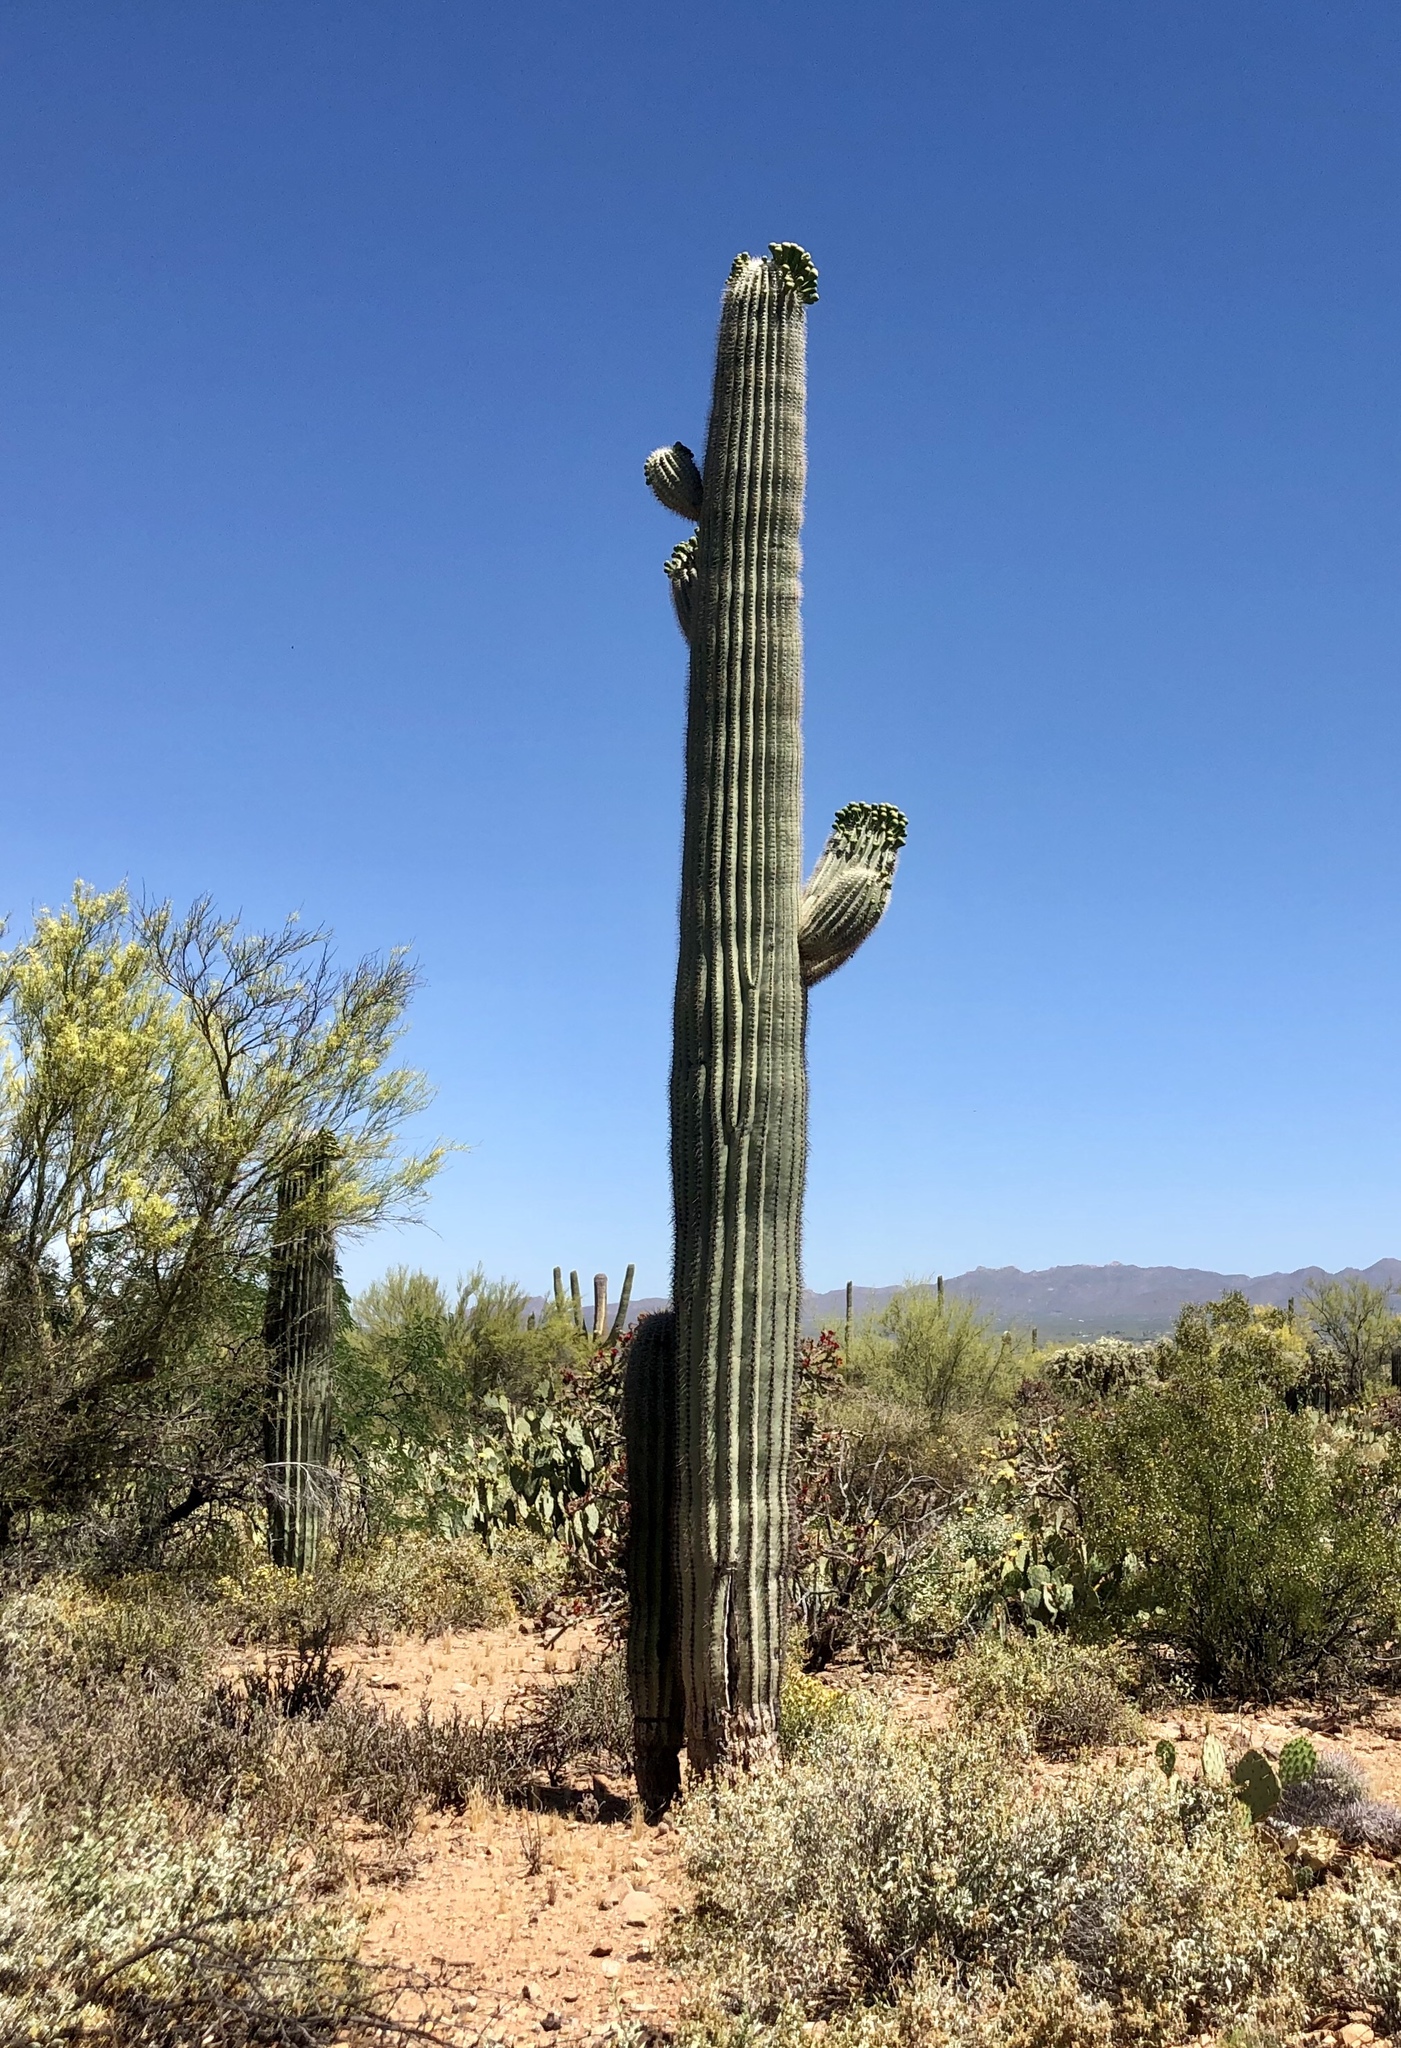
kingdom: Plantae
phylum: Tracheophyta
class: Magnoliopsida
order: Caryophyllales
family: Cactaceae
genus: Carnegiea
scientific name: Carnegiea gigantea
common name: Saguaro
